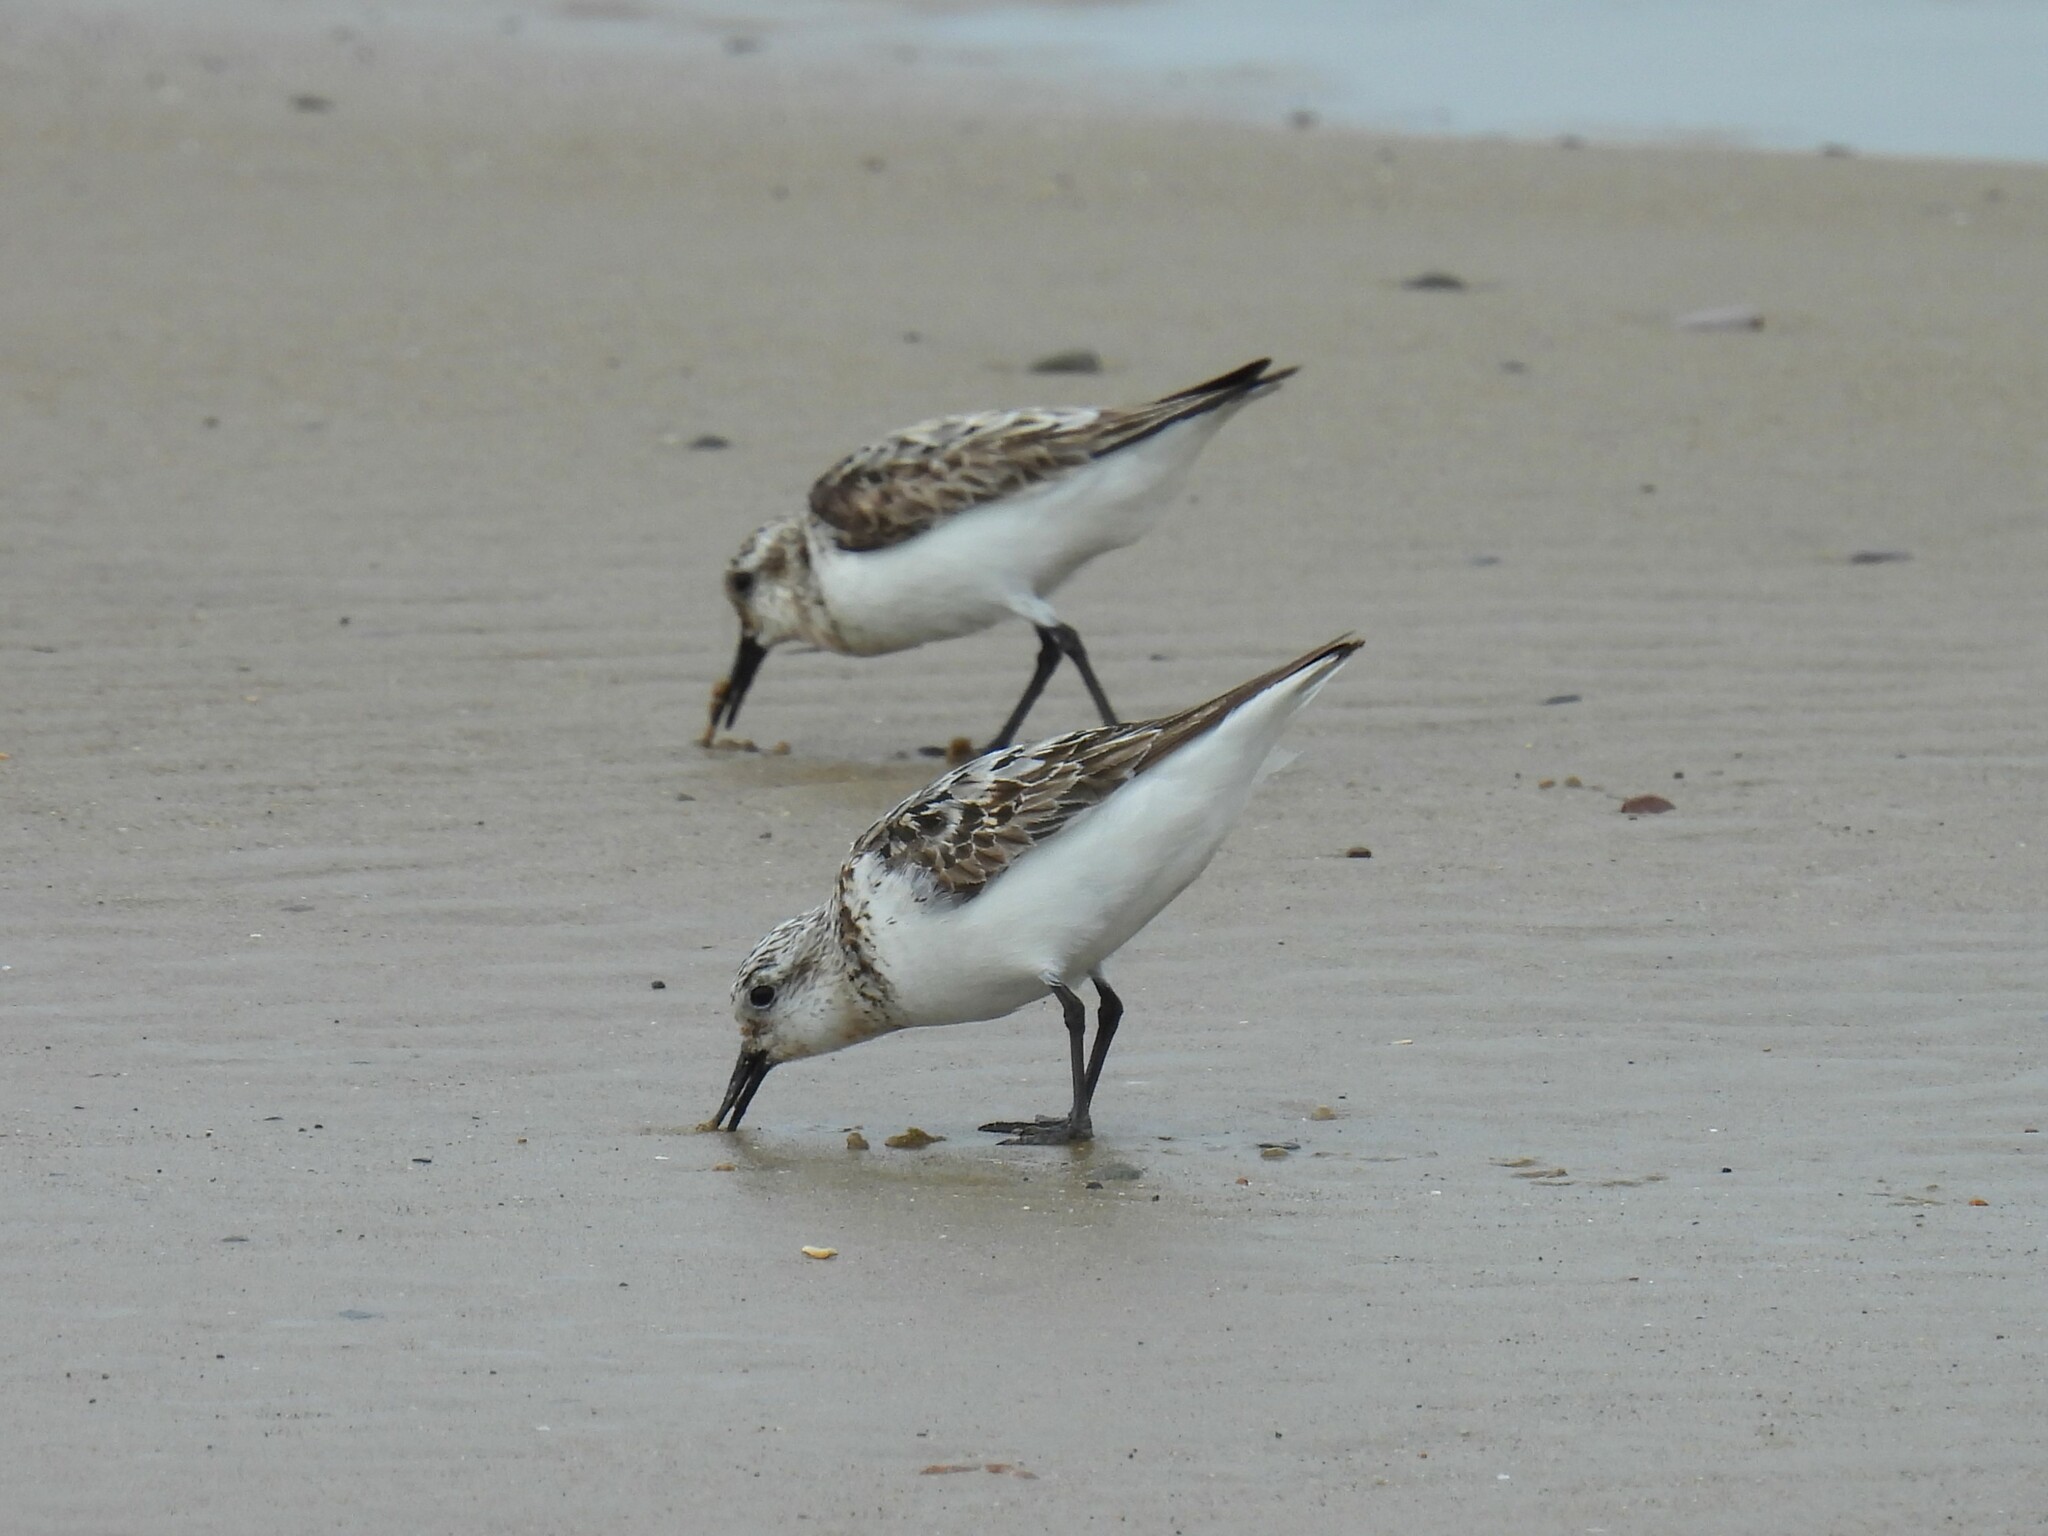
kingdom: Animalia
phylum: Chordata
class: Aves
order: Charadriiformes
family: Scolopacidae
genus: Calidris
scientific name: Calidris alba
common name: Sanderling
